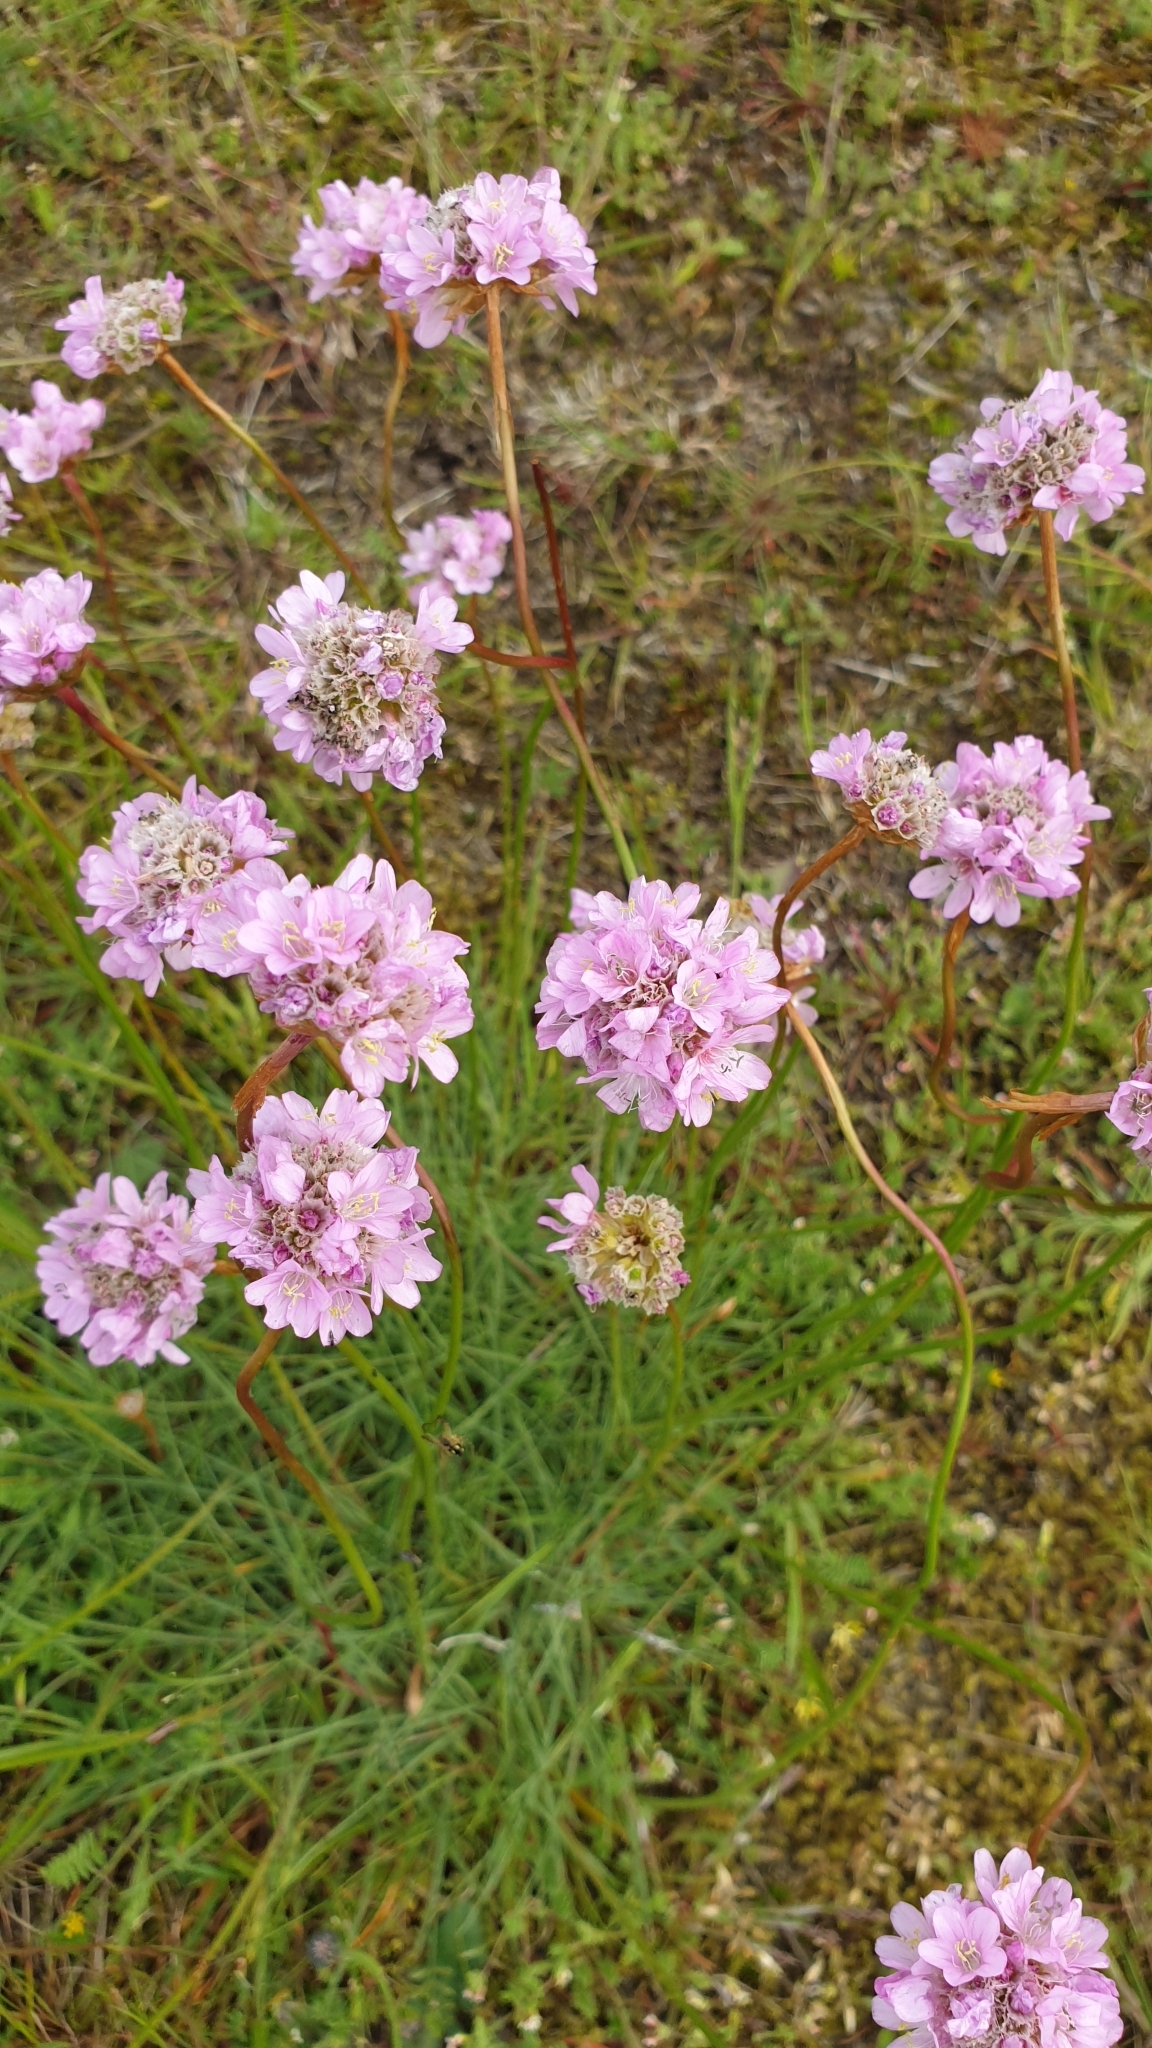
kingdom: Plantae
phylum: Tracheophyta
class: Magnoliopsida
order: Caryophyllales
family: Plumbaginaceae
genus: Armeria
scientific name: Armeria maritima
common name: Thrift
